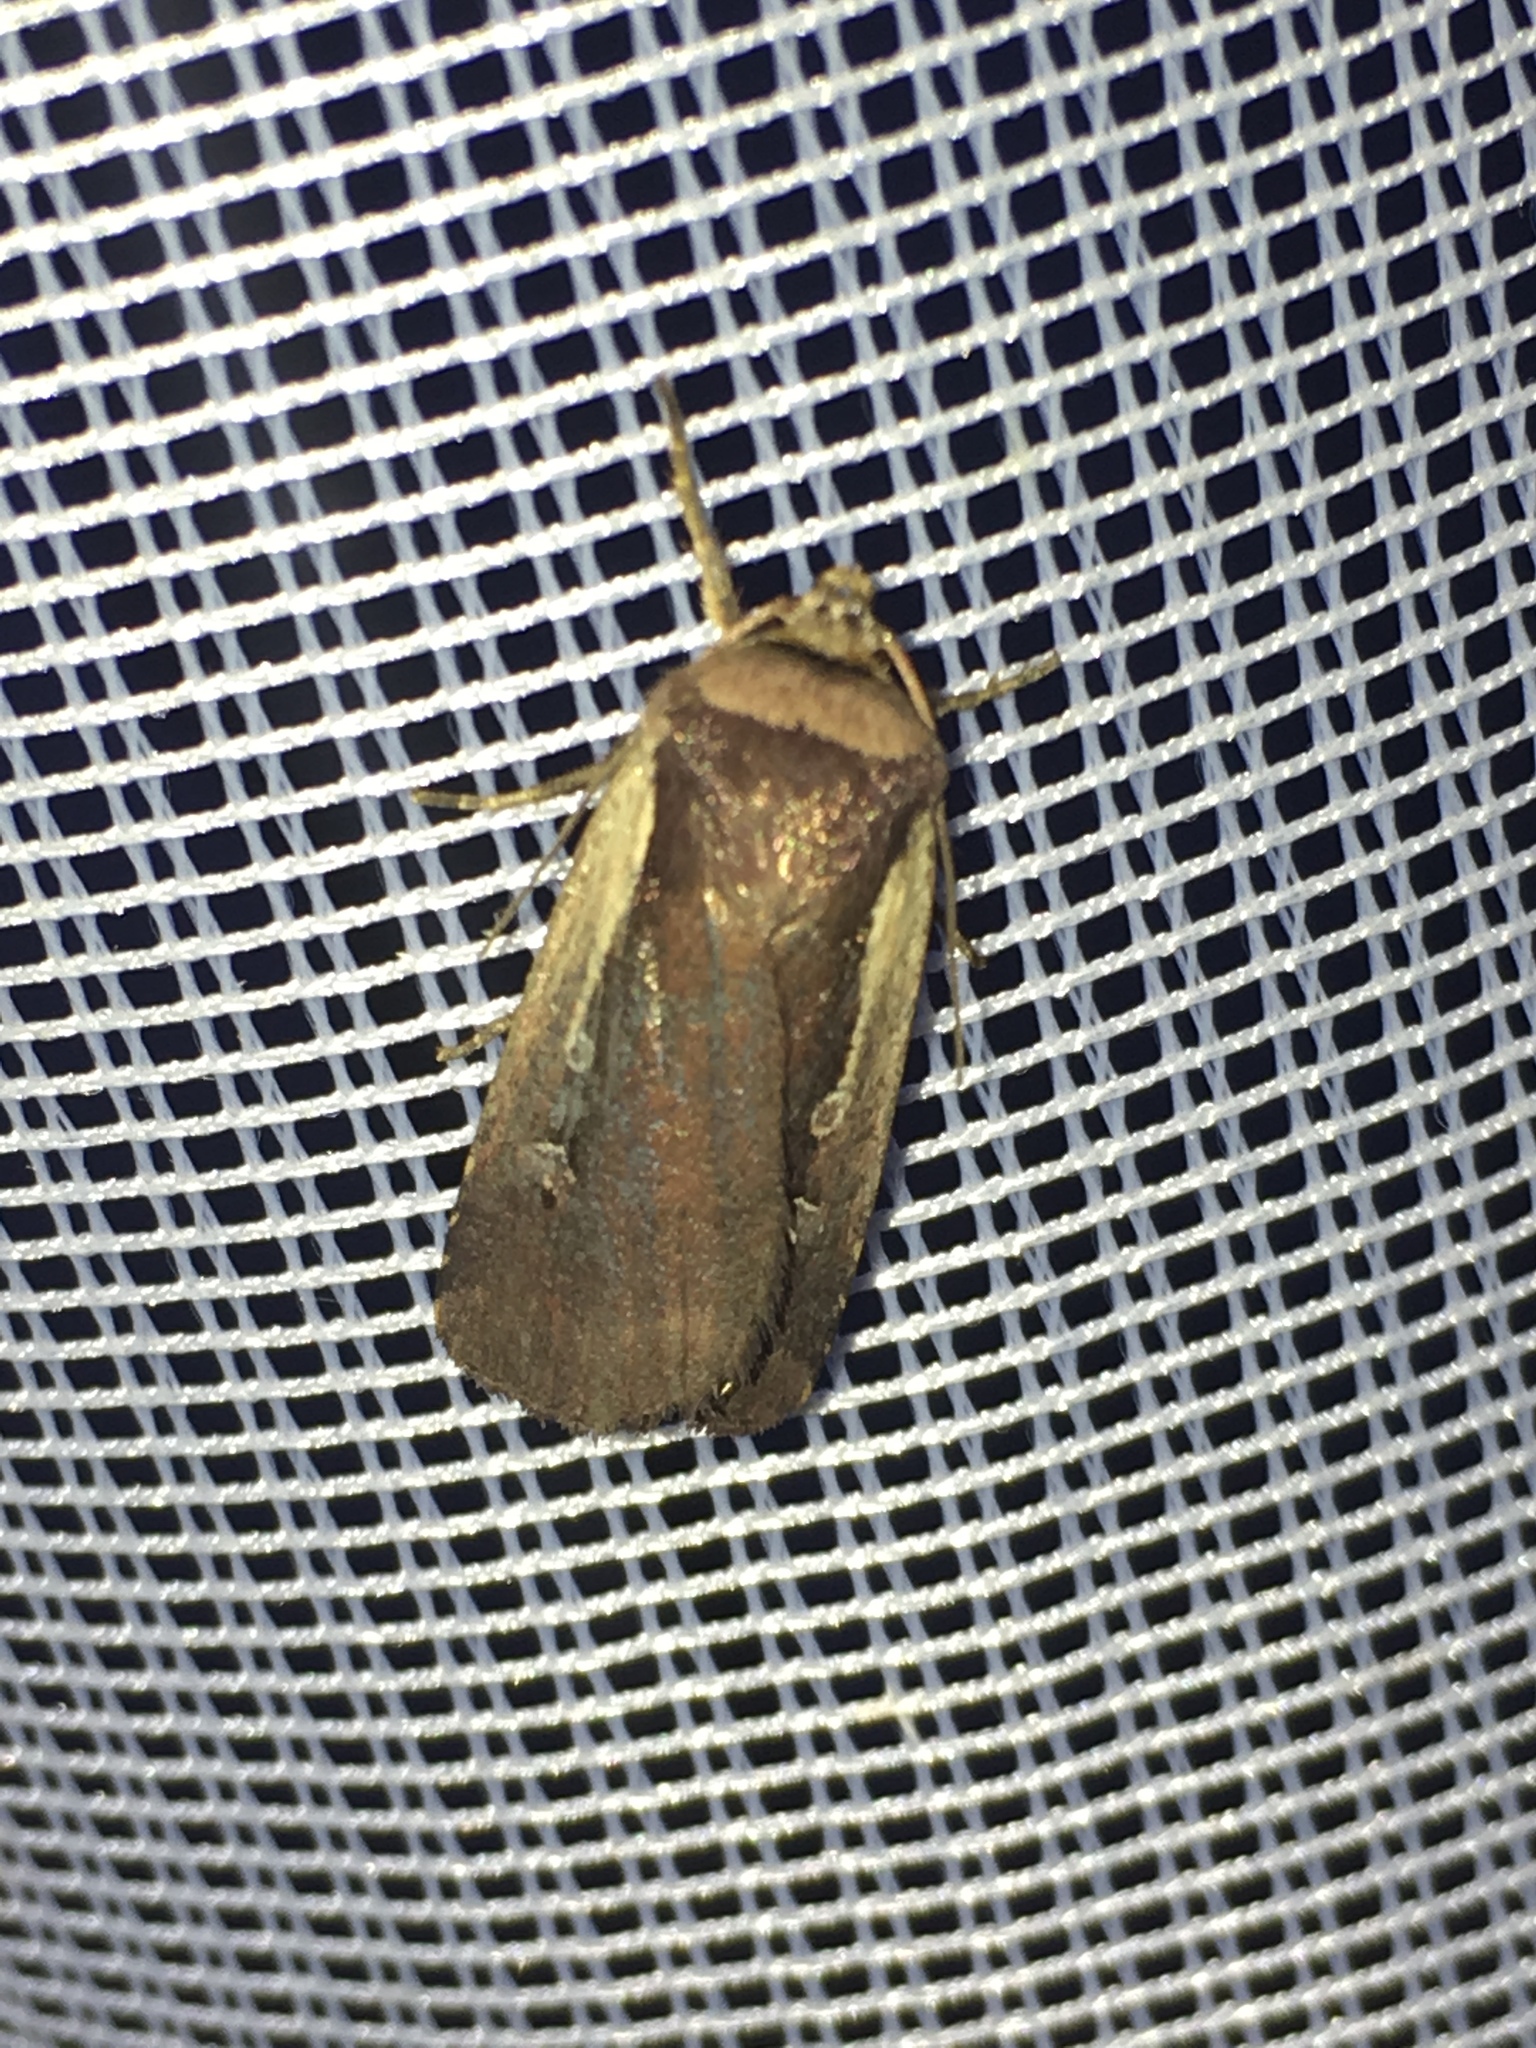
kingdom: Animalia
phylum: Arthropoda
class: Insecta
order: Lepidoptera
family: Noctuidae
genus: Ochropleura
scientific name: Ochropleura plecta
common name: Flame shoulder
